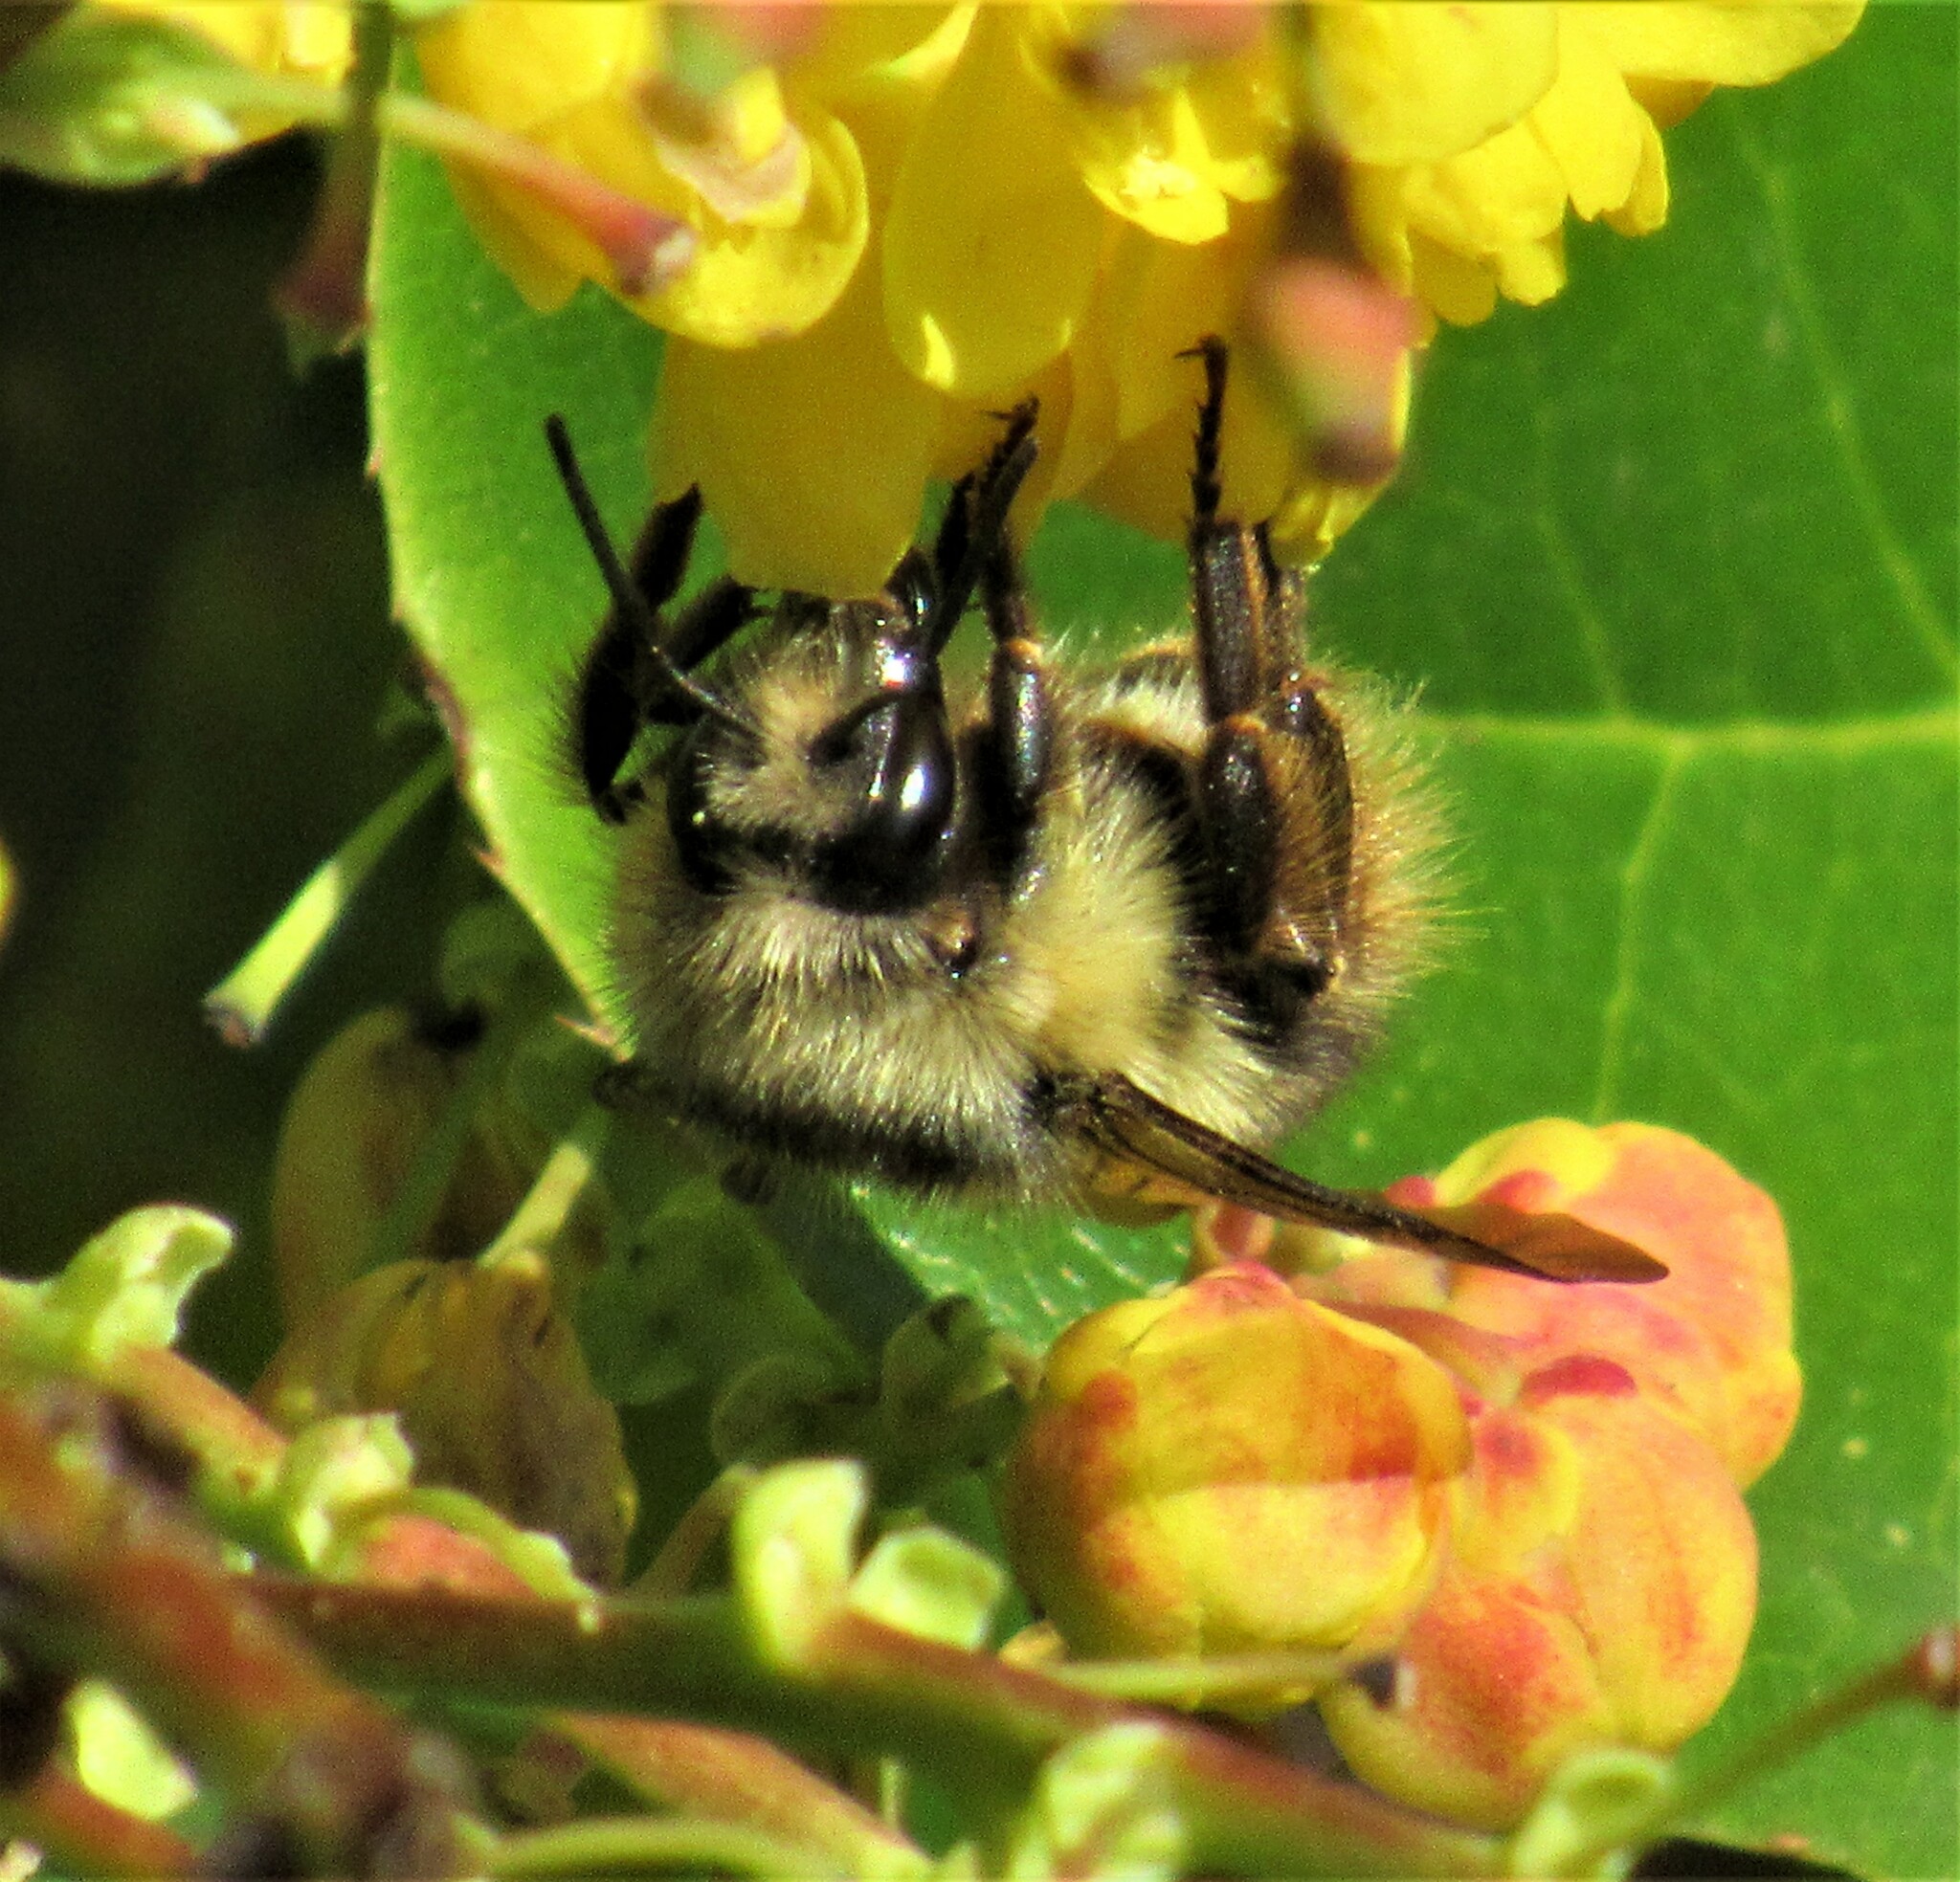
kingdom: Animalia
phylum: Arthropoda
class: Insecta
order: Hymenoptera
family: Apidae
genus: Bombus
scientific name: Bombus mixtus
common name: Fuzzy-horned bumble bee
